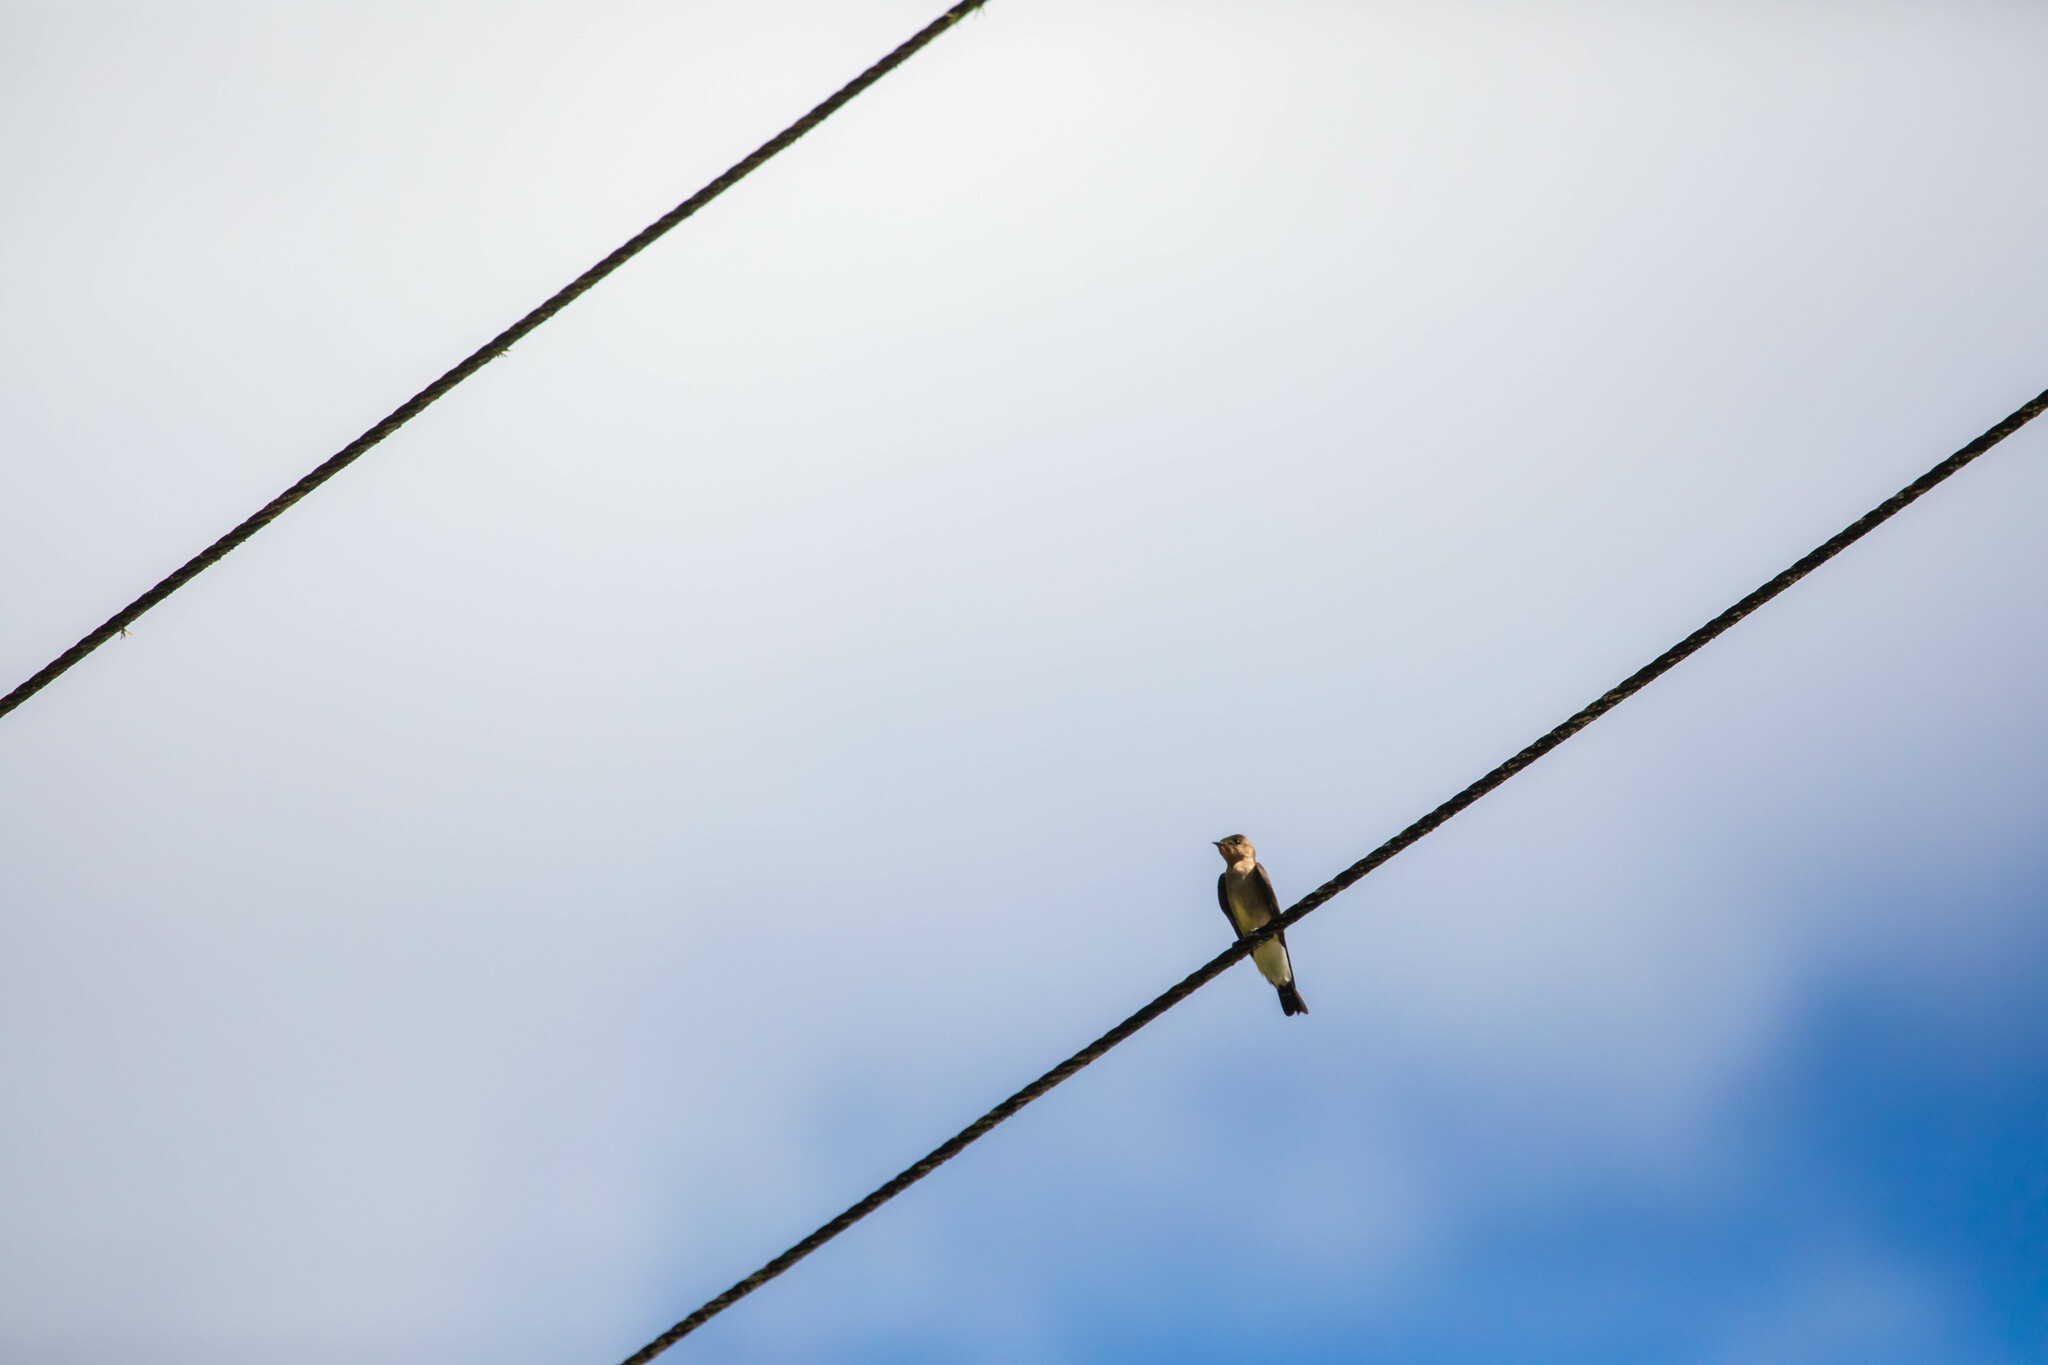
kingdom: Animalia
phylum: Chordata
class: Aves
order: Passeriformes
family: Hirundinidae
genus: Stelgidopteryx
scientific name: Stelgidopteryx ruficollis
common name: Southern rough-winged swallow
